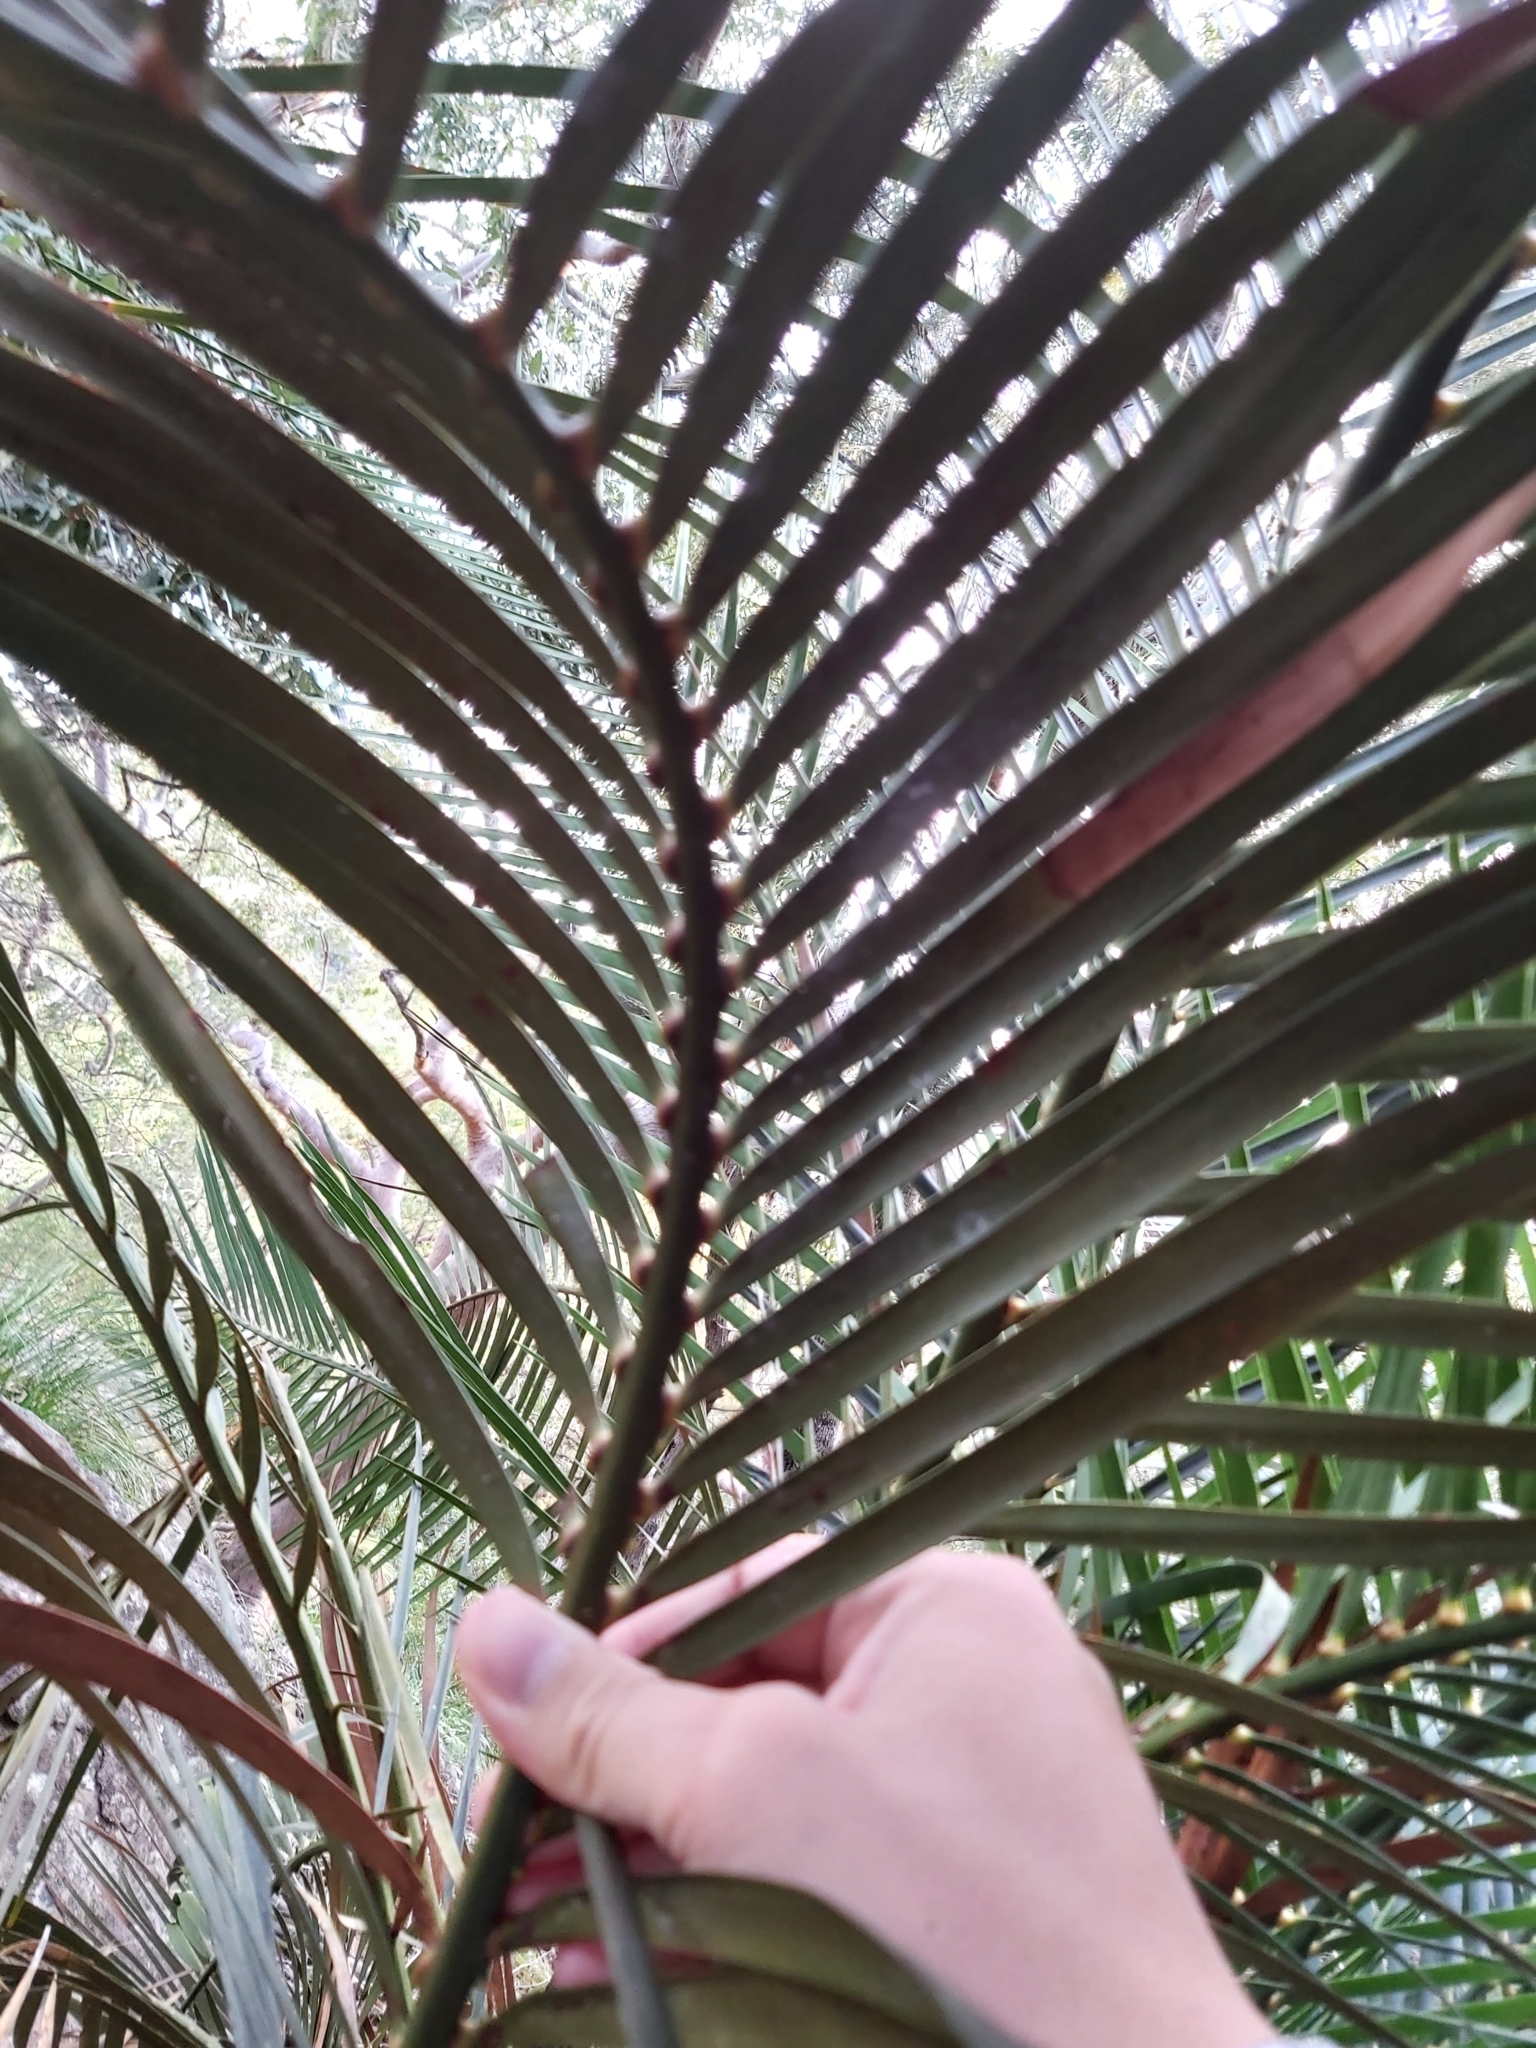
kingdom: Plantae
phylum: Tracheophyta
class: Cycadopsida
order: Cycadales
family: Zamiaceae
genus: Macrozamia
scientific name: Macrozamia communis
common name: Burrawong
